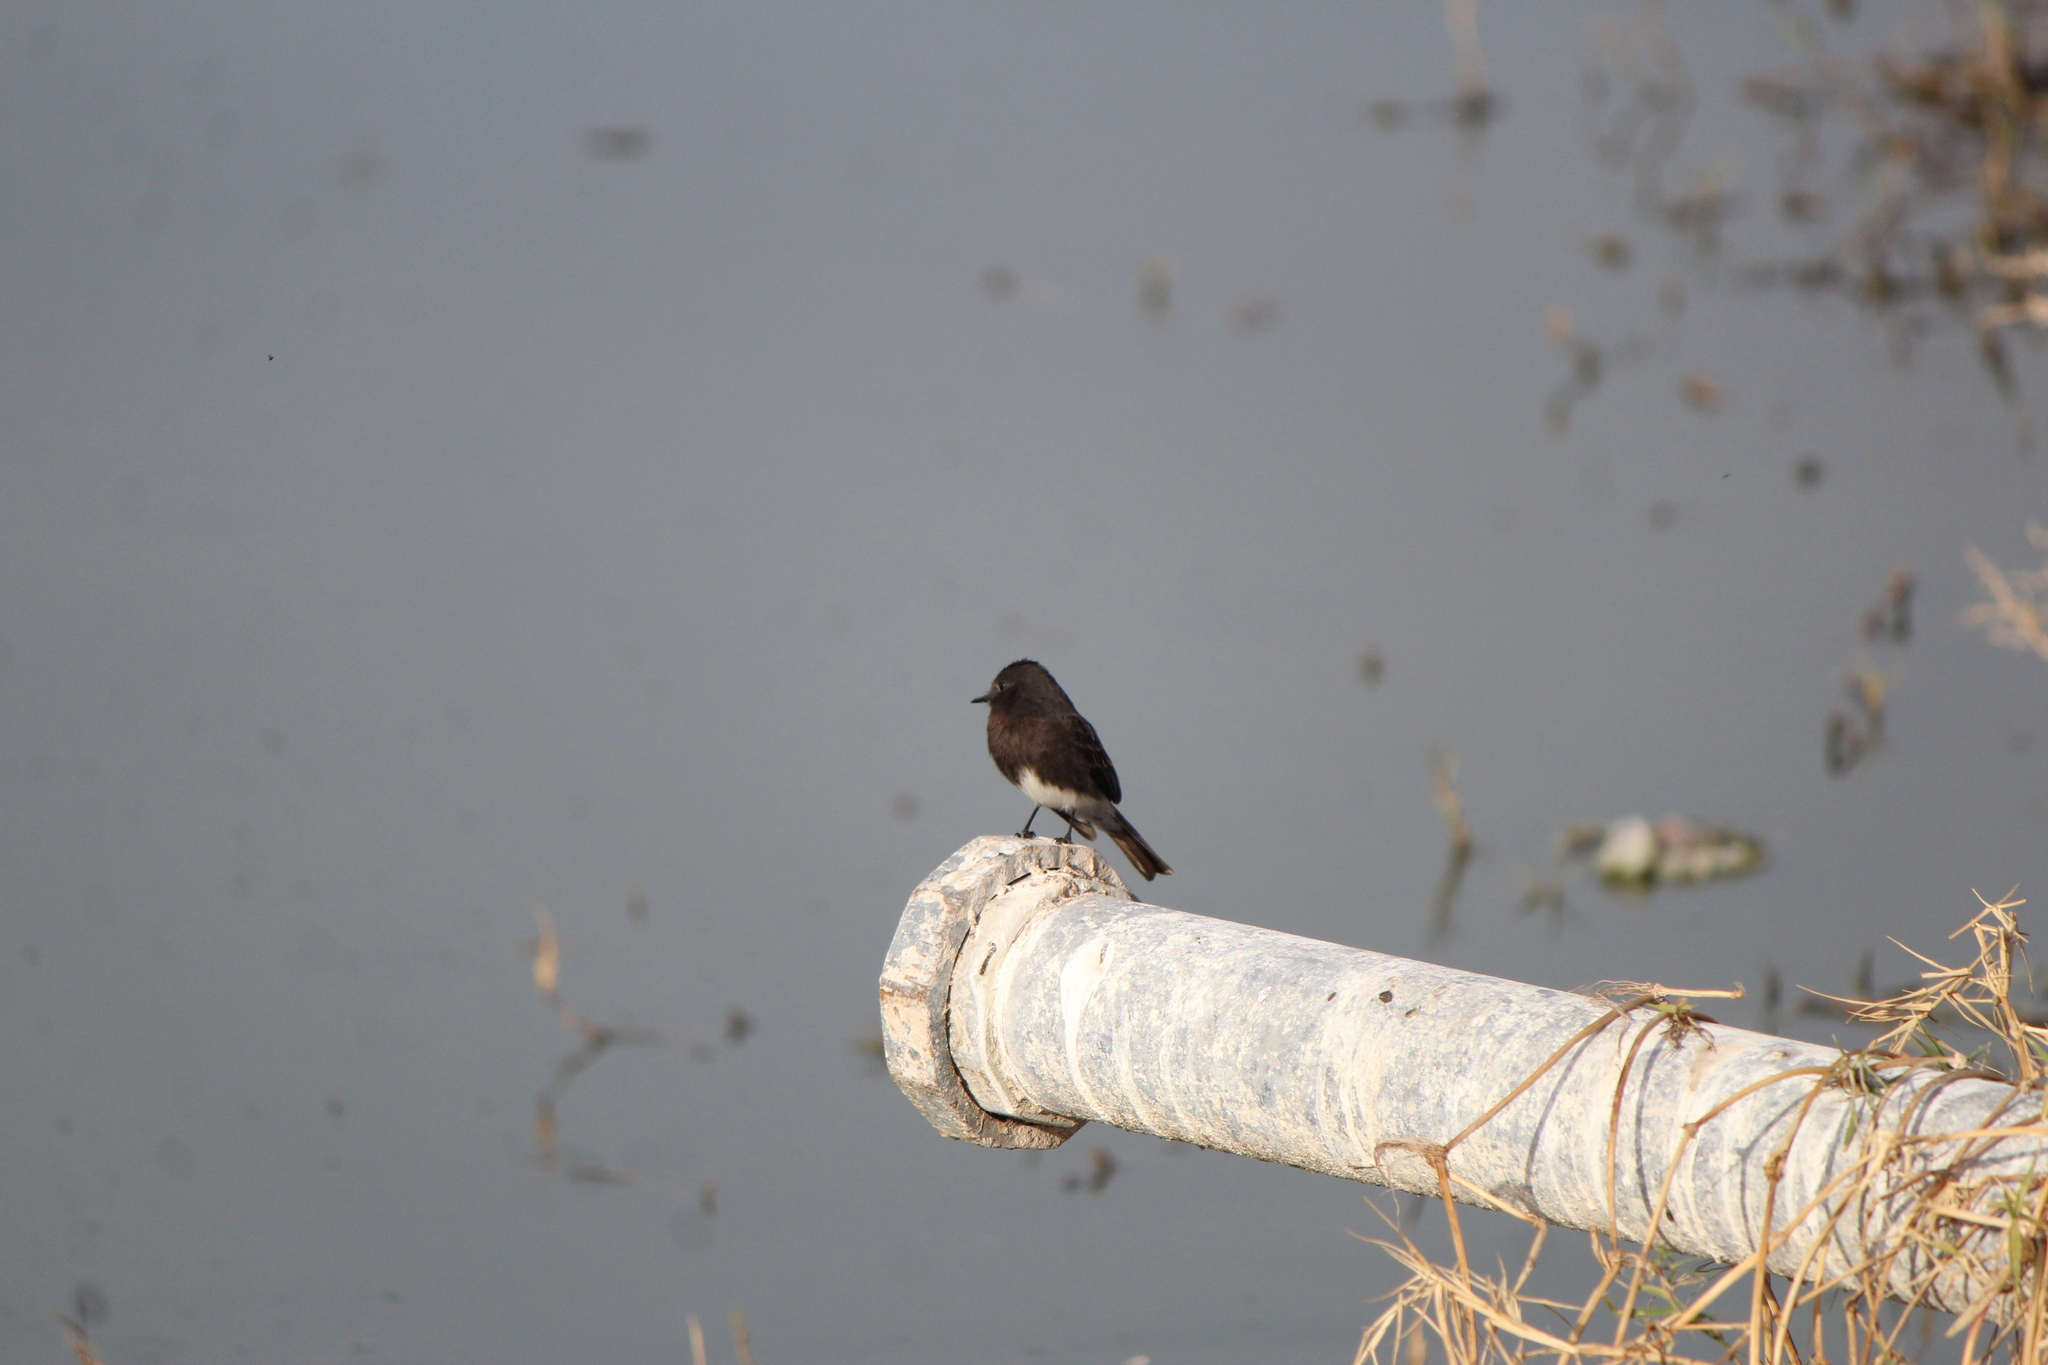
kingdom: Animalia
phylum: Chordata
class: Aves
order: Passeriformes
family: Tyrannidae
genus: Sayornis
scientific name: Sayornis nigricans
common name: Black phoebe
